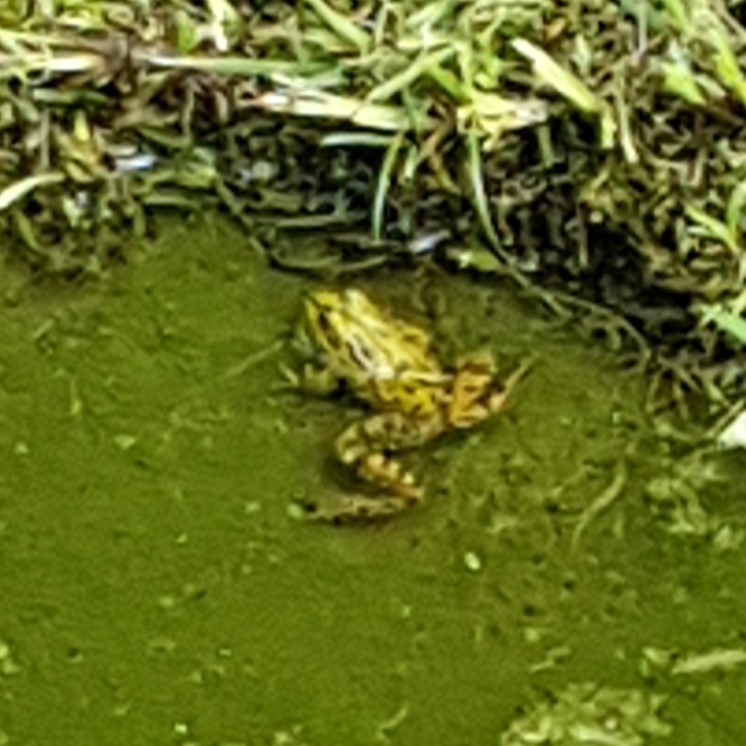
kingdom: Animalia
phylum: Chordata
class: Amphibia
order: Anura
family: Ranidae
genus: Pelophylax
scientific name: Pelophylax perezi
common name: Perez's frog
